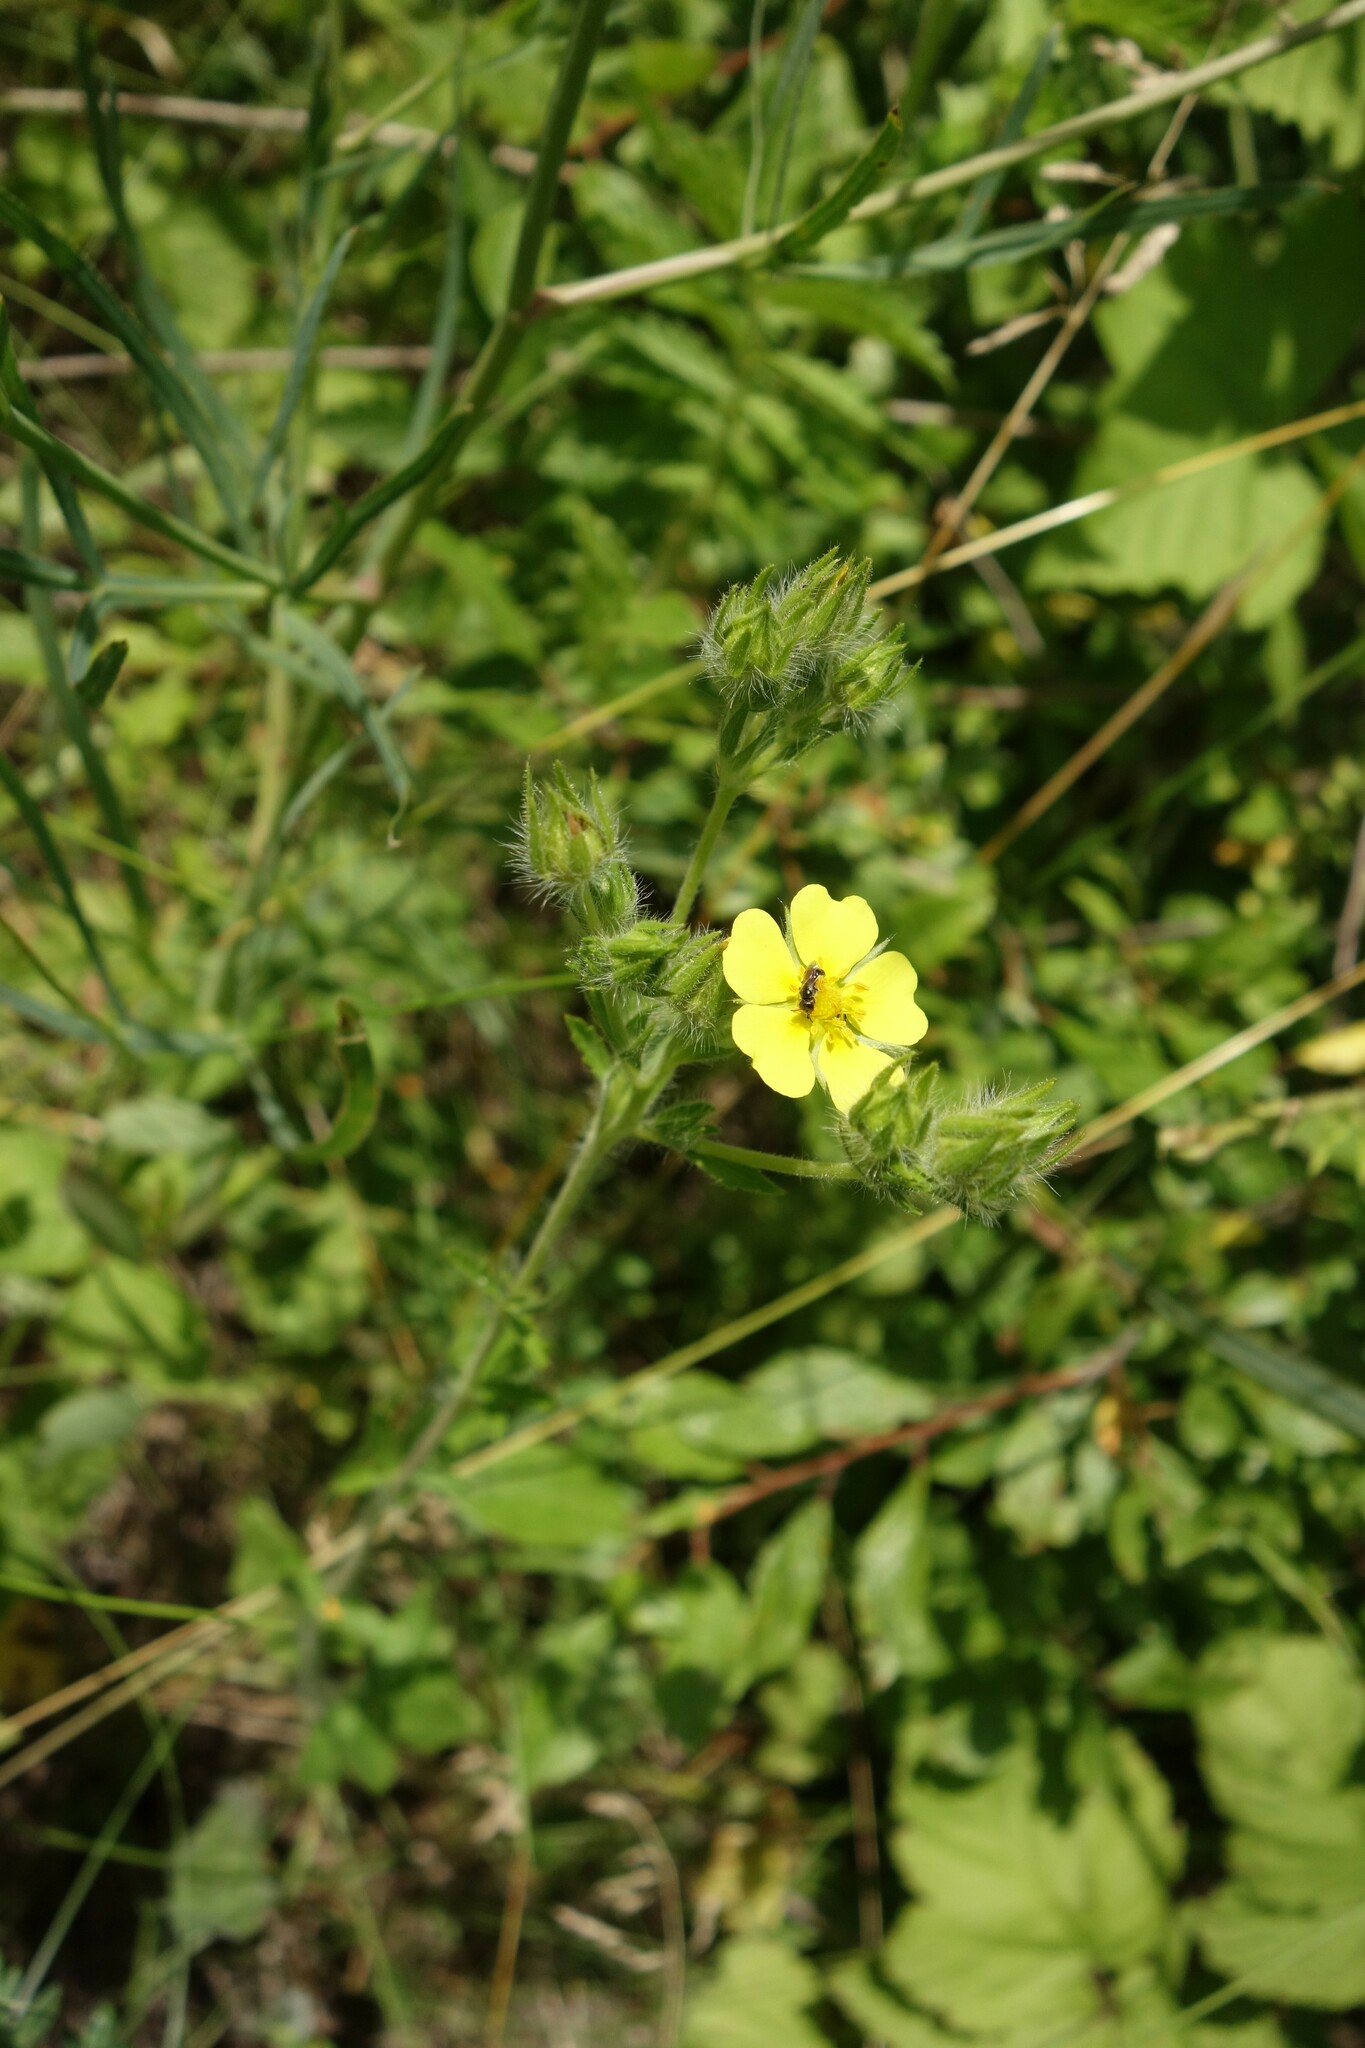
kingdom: Plantae
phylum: Tracheophyta
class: Magnoliopsida
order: Rosales
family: Rosaceae
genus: Potentilla
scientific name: Potentilla recta
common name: Sulphur cinquefoil
